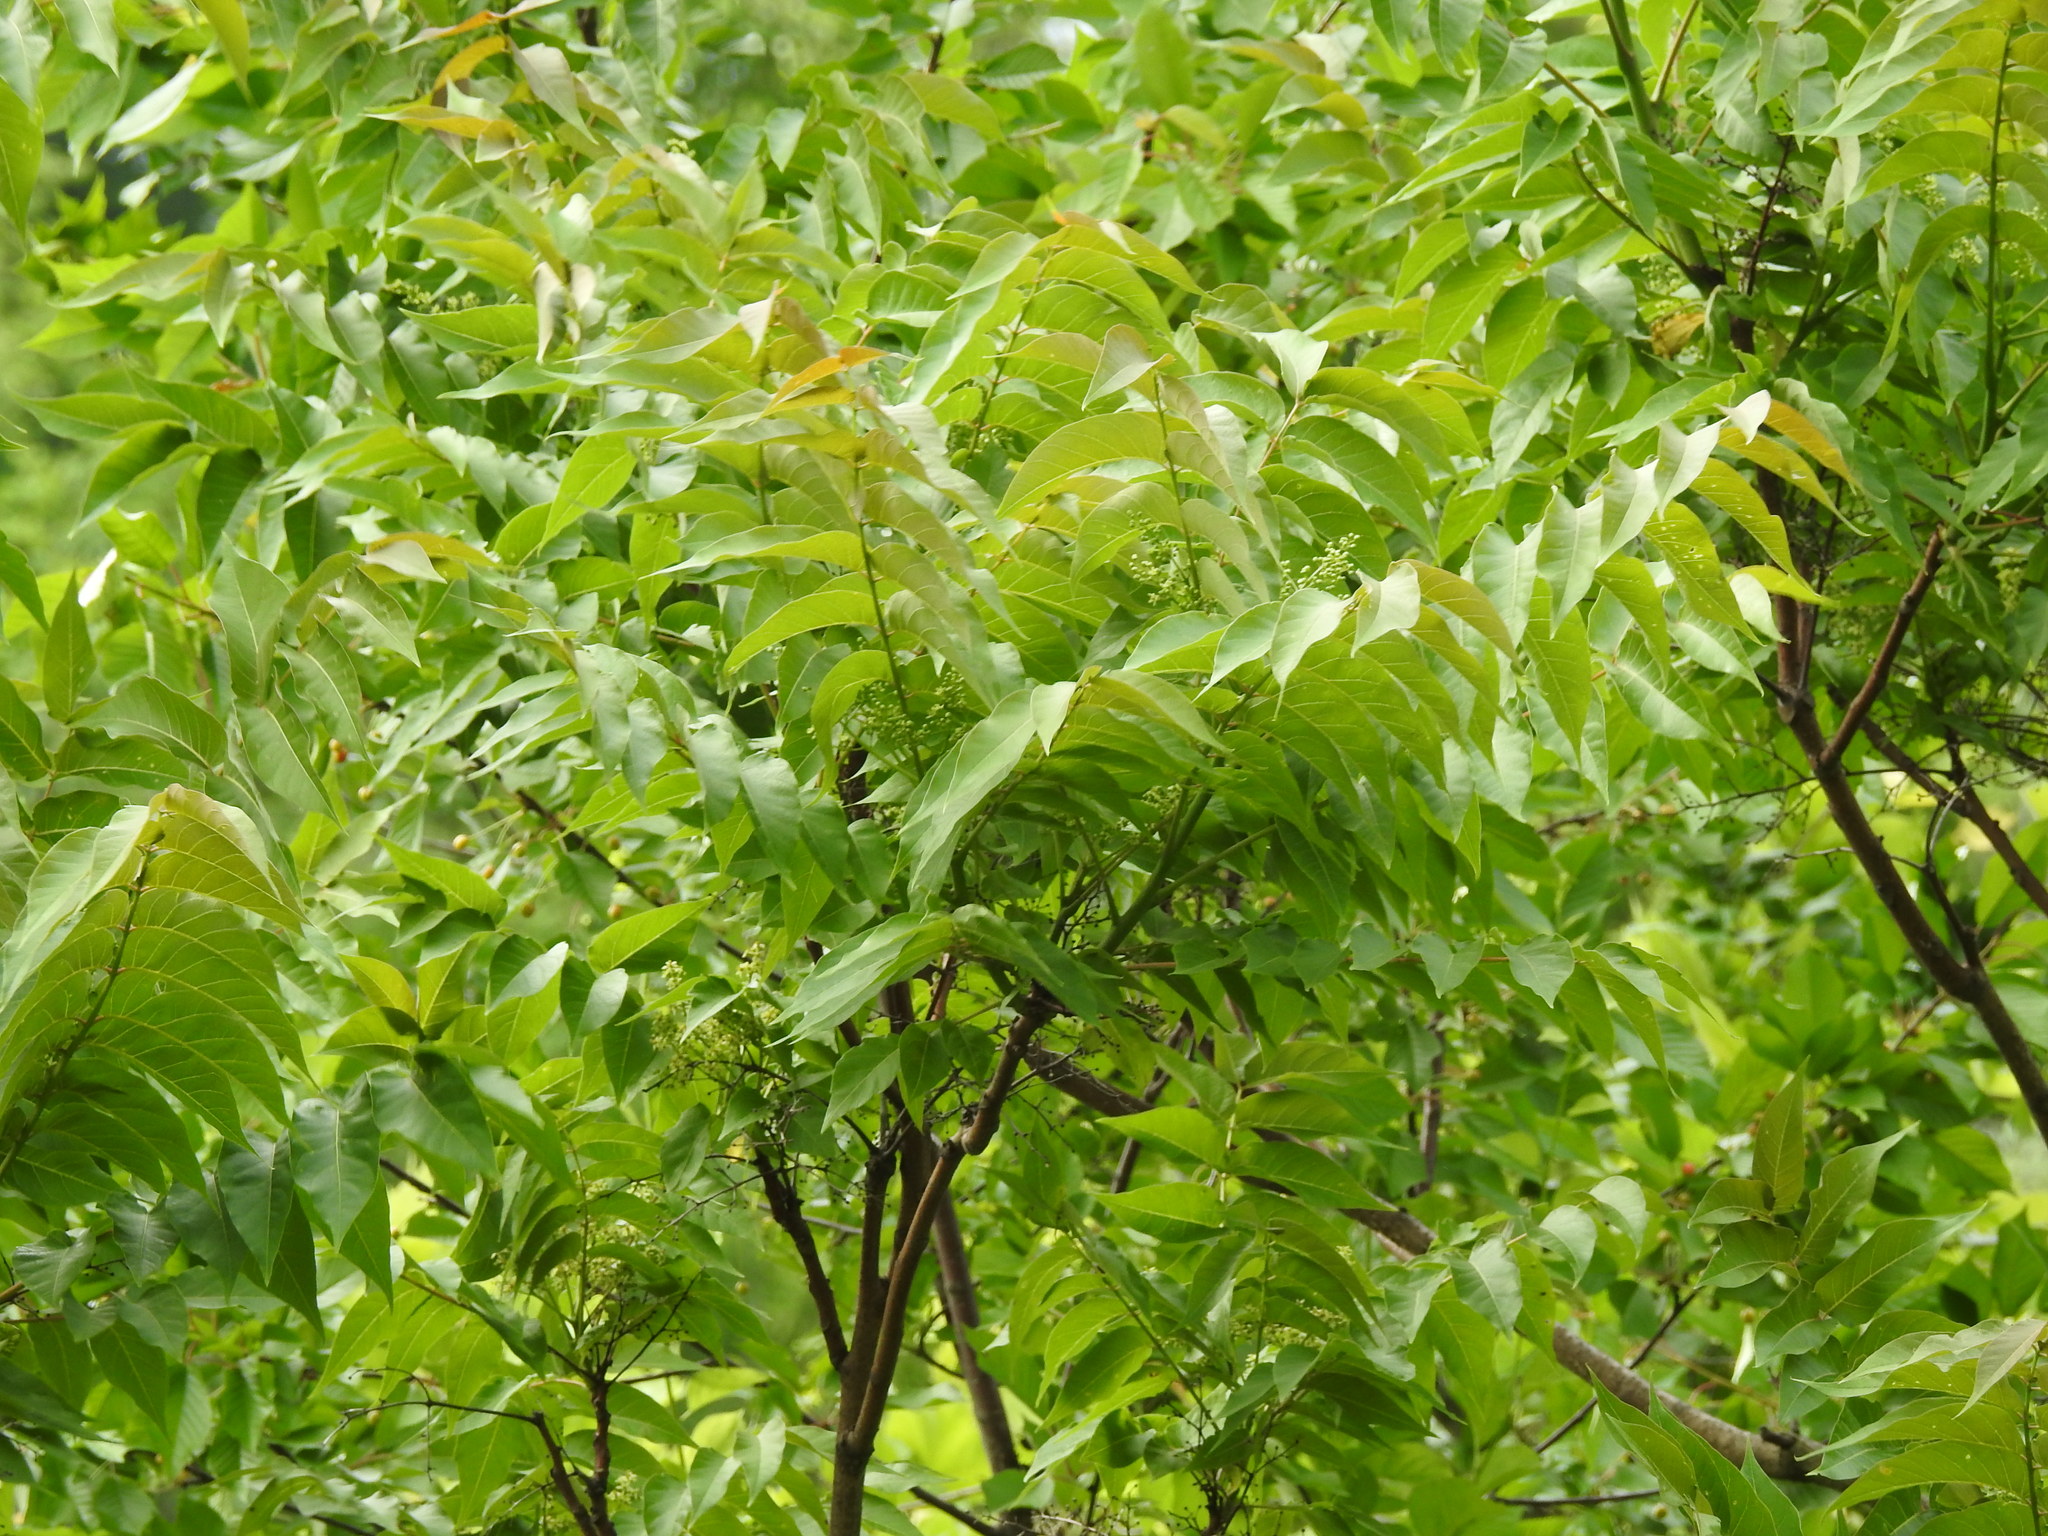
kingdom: Plantae
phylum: Tracheophyta
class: Magnoliopsida
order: Sapindales
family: Simaroubaceae
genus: Ailanthus
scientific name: Ailanthus altissima
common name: Tree-of-heaven
